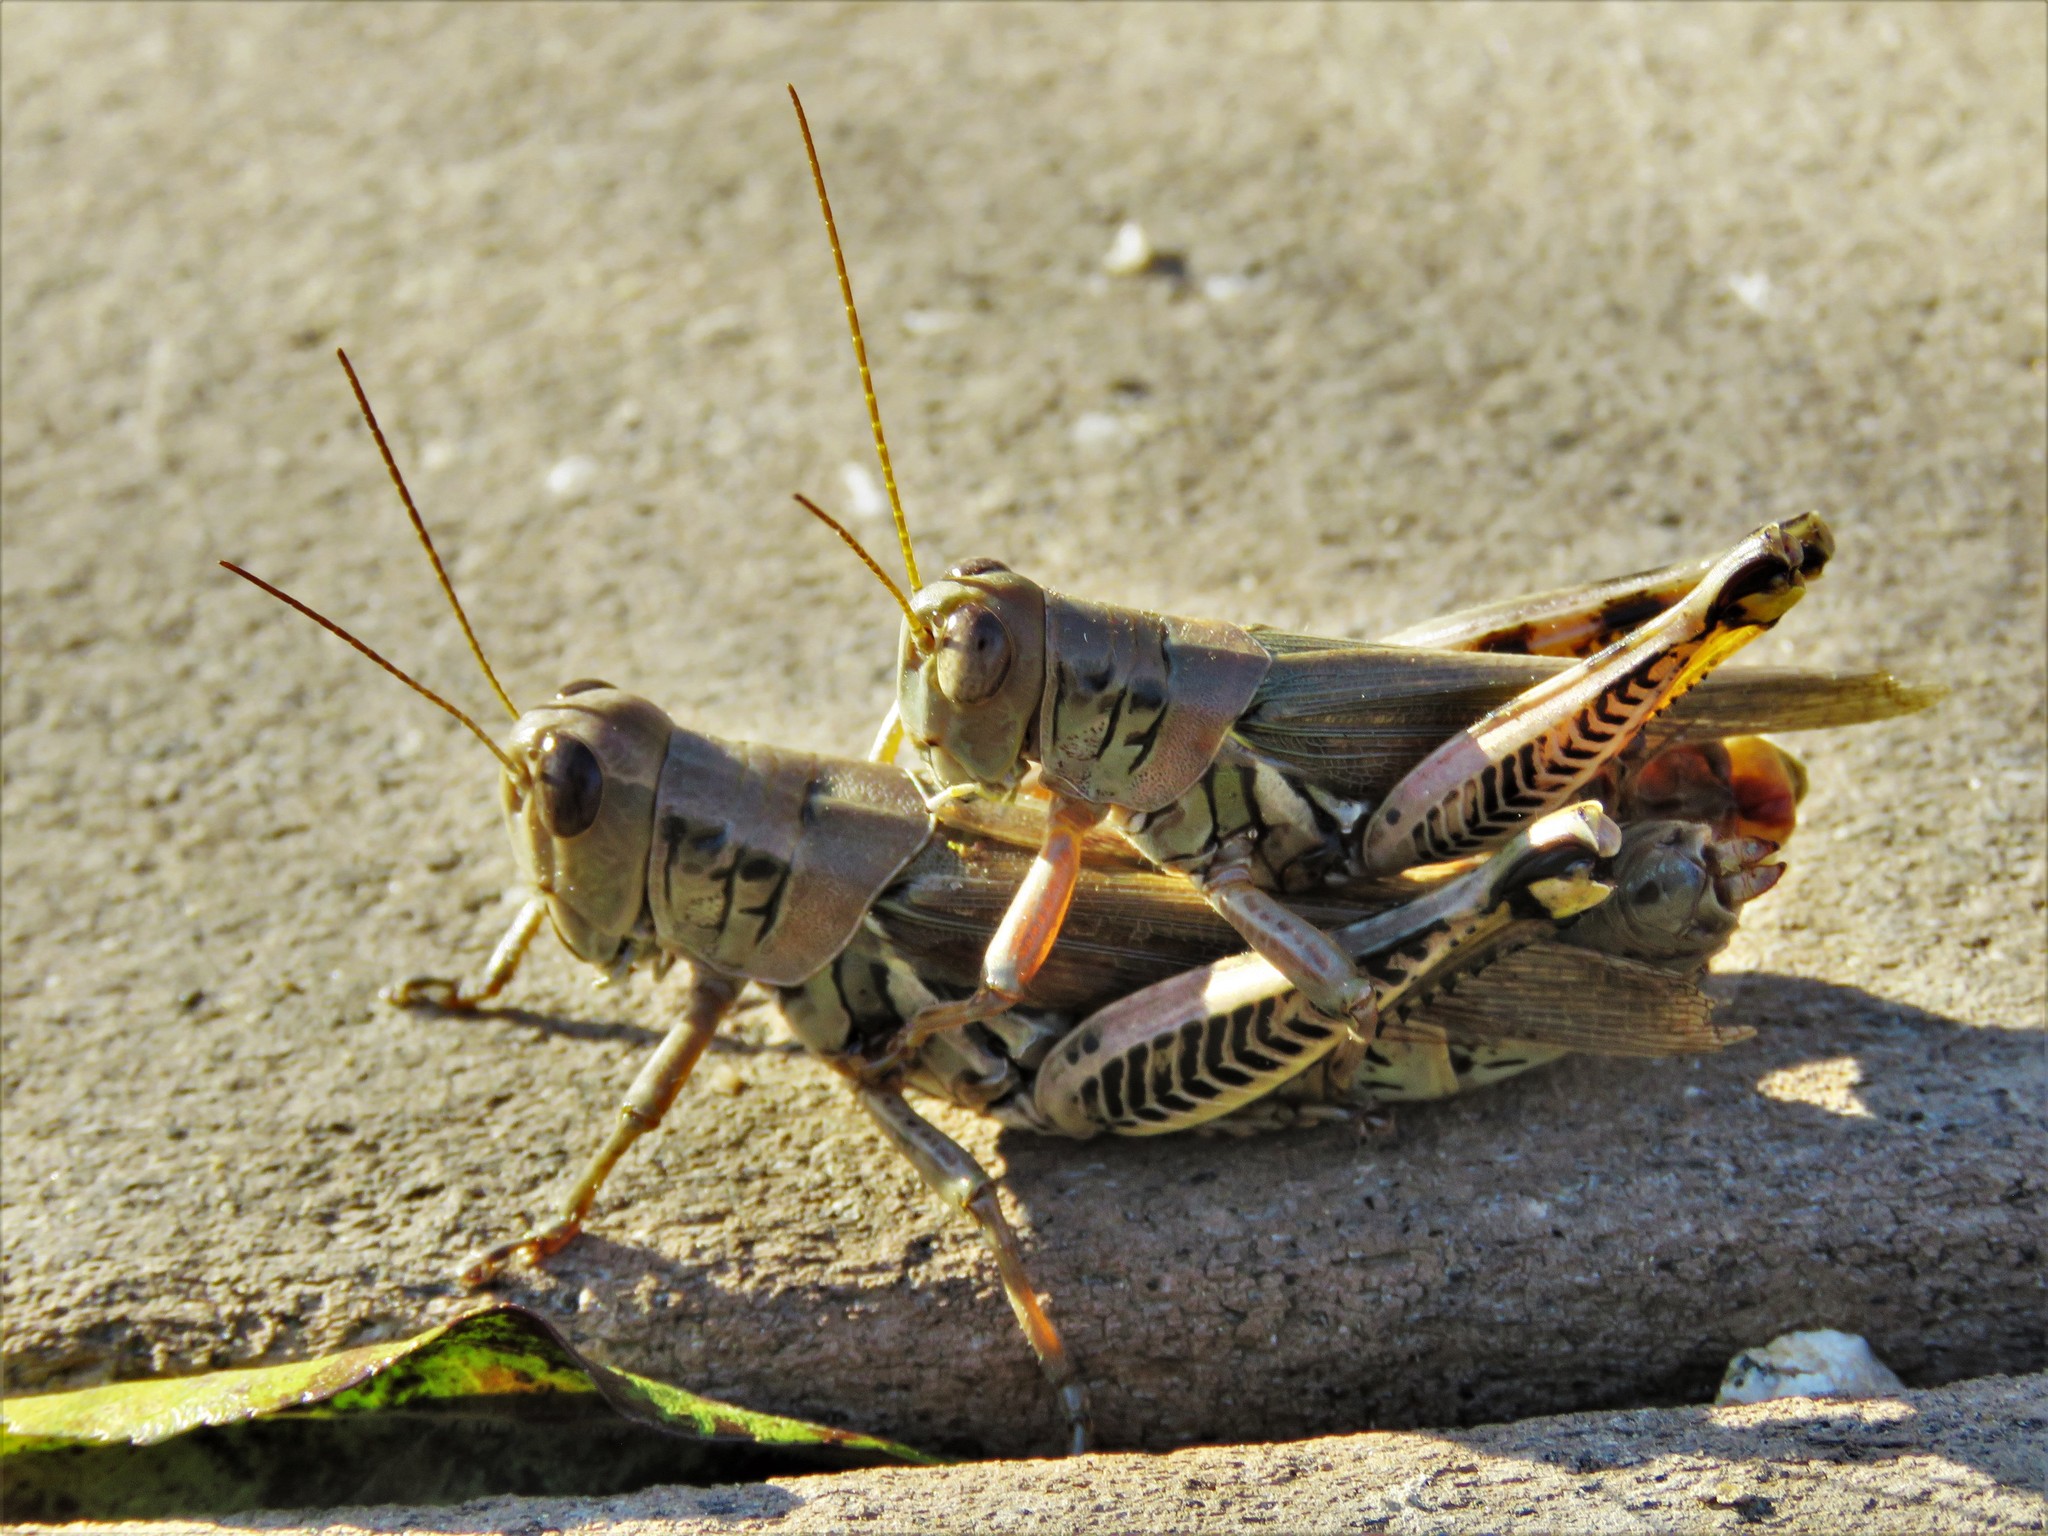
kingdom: Animalia
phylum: Arthropoda
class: Insecta
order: Orthoptera
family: Acrididae
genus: Melanoplus
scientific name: Melanoplus differentialis
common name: Differential grasshopper
